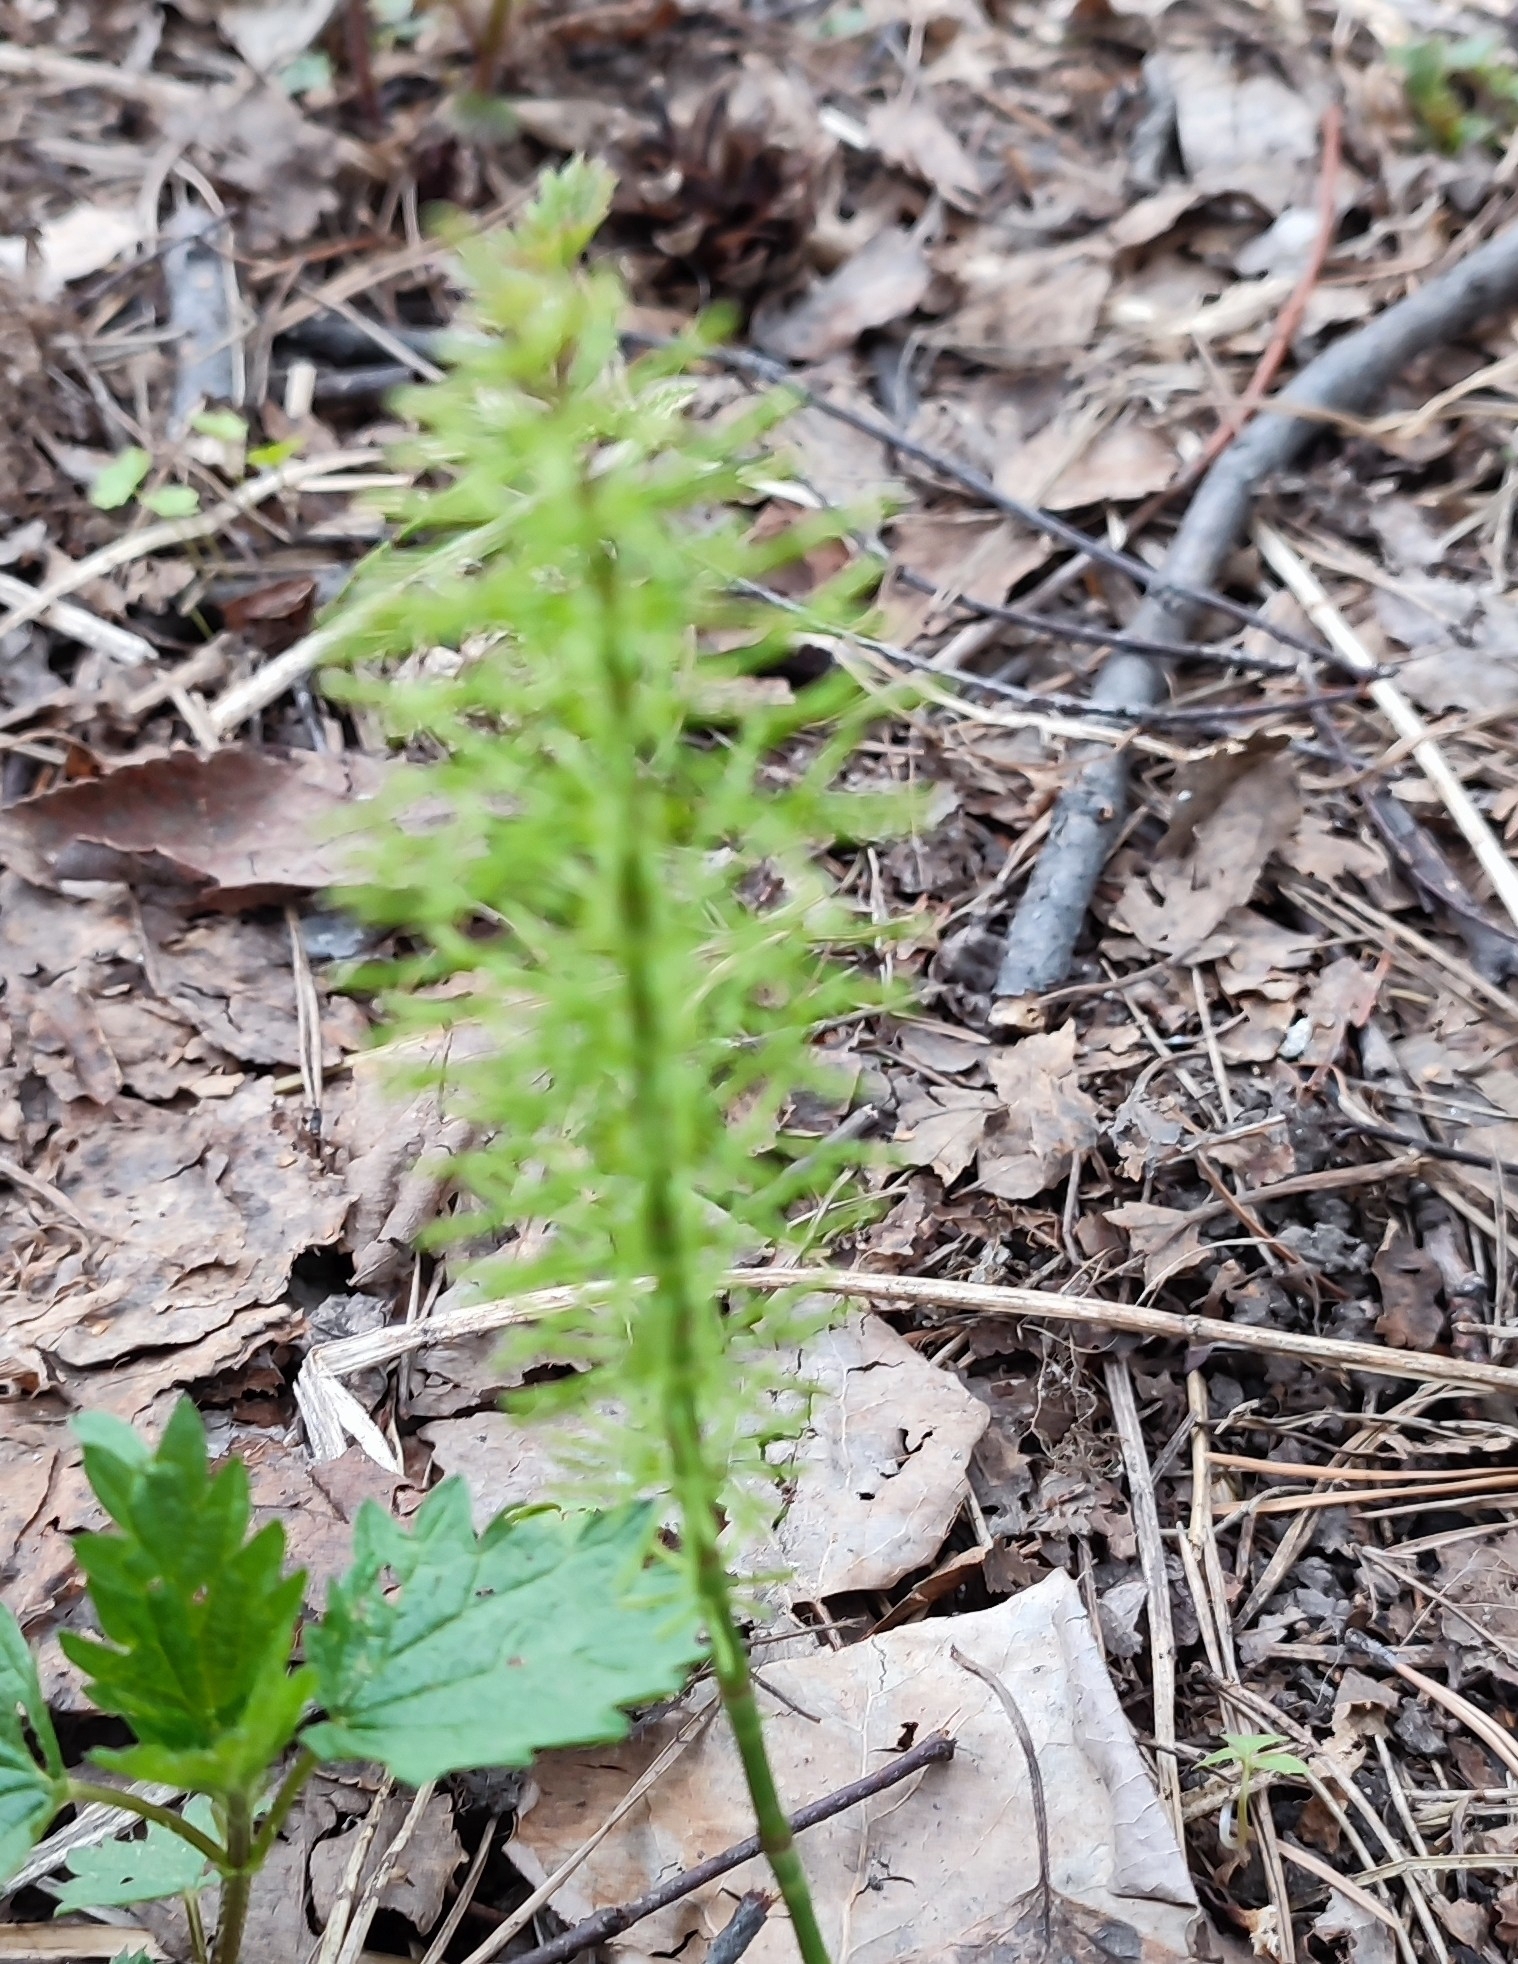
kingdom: Plantae
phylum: Tracheophyta
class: Polypodiopsida
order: Equisetales
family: Equisetaceae
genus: Equisetum
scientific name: Equisetum pratense
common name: Meadow horsetail
